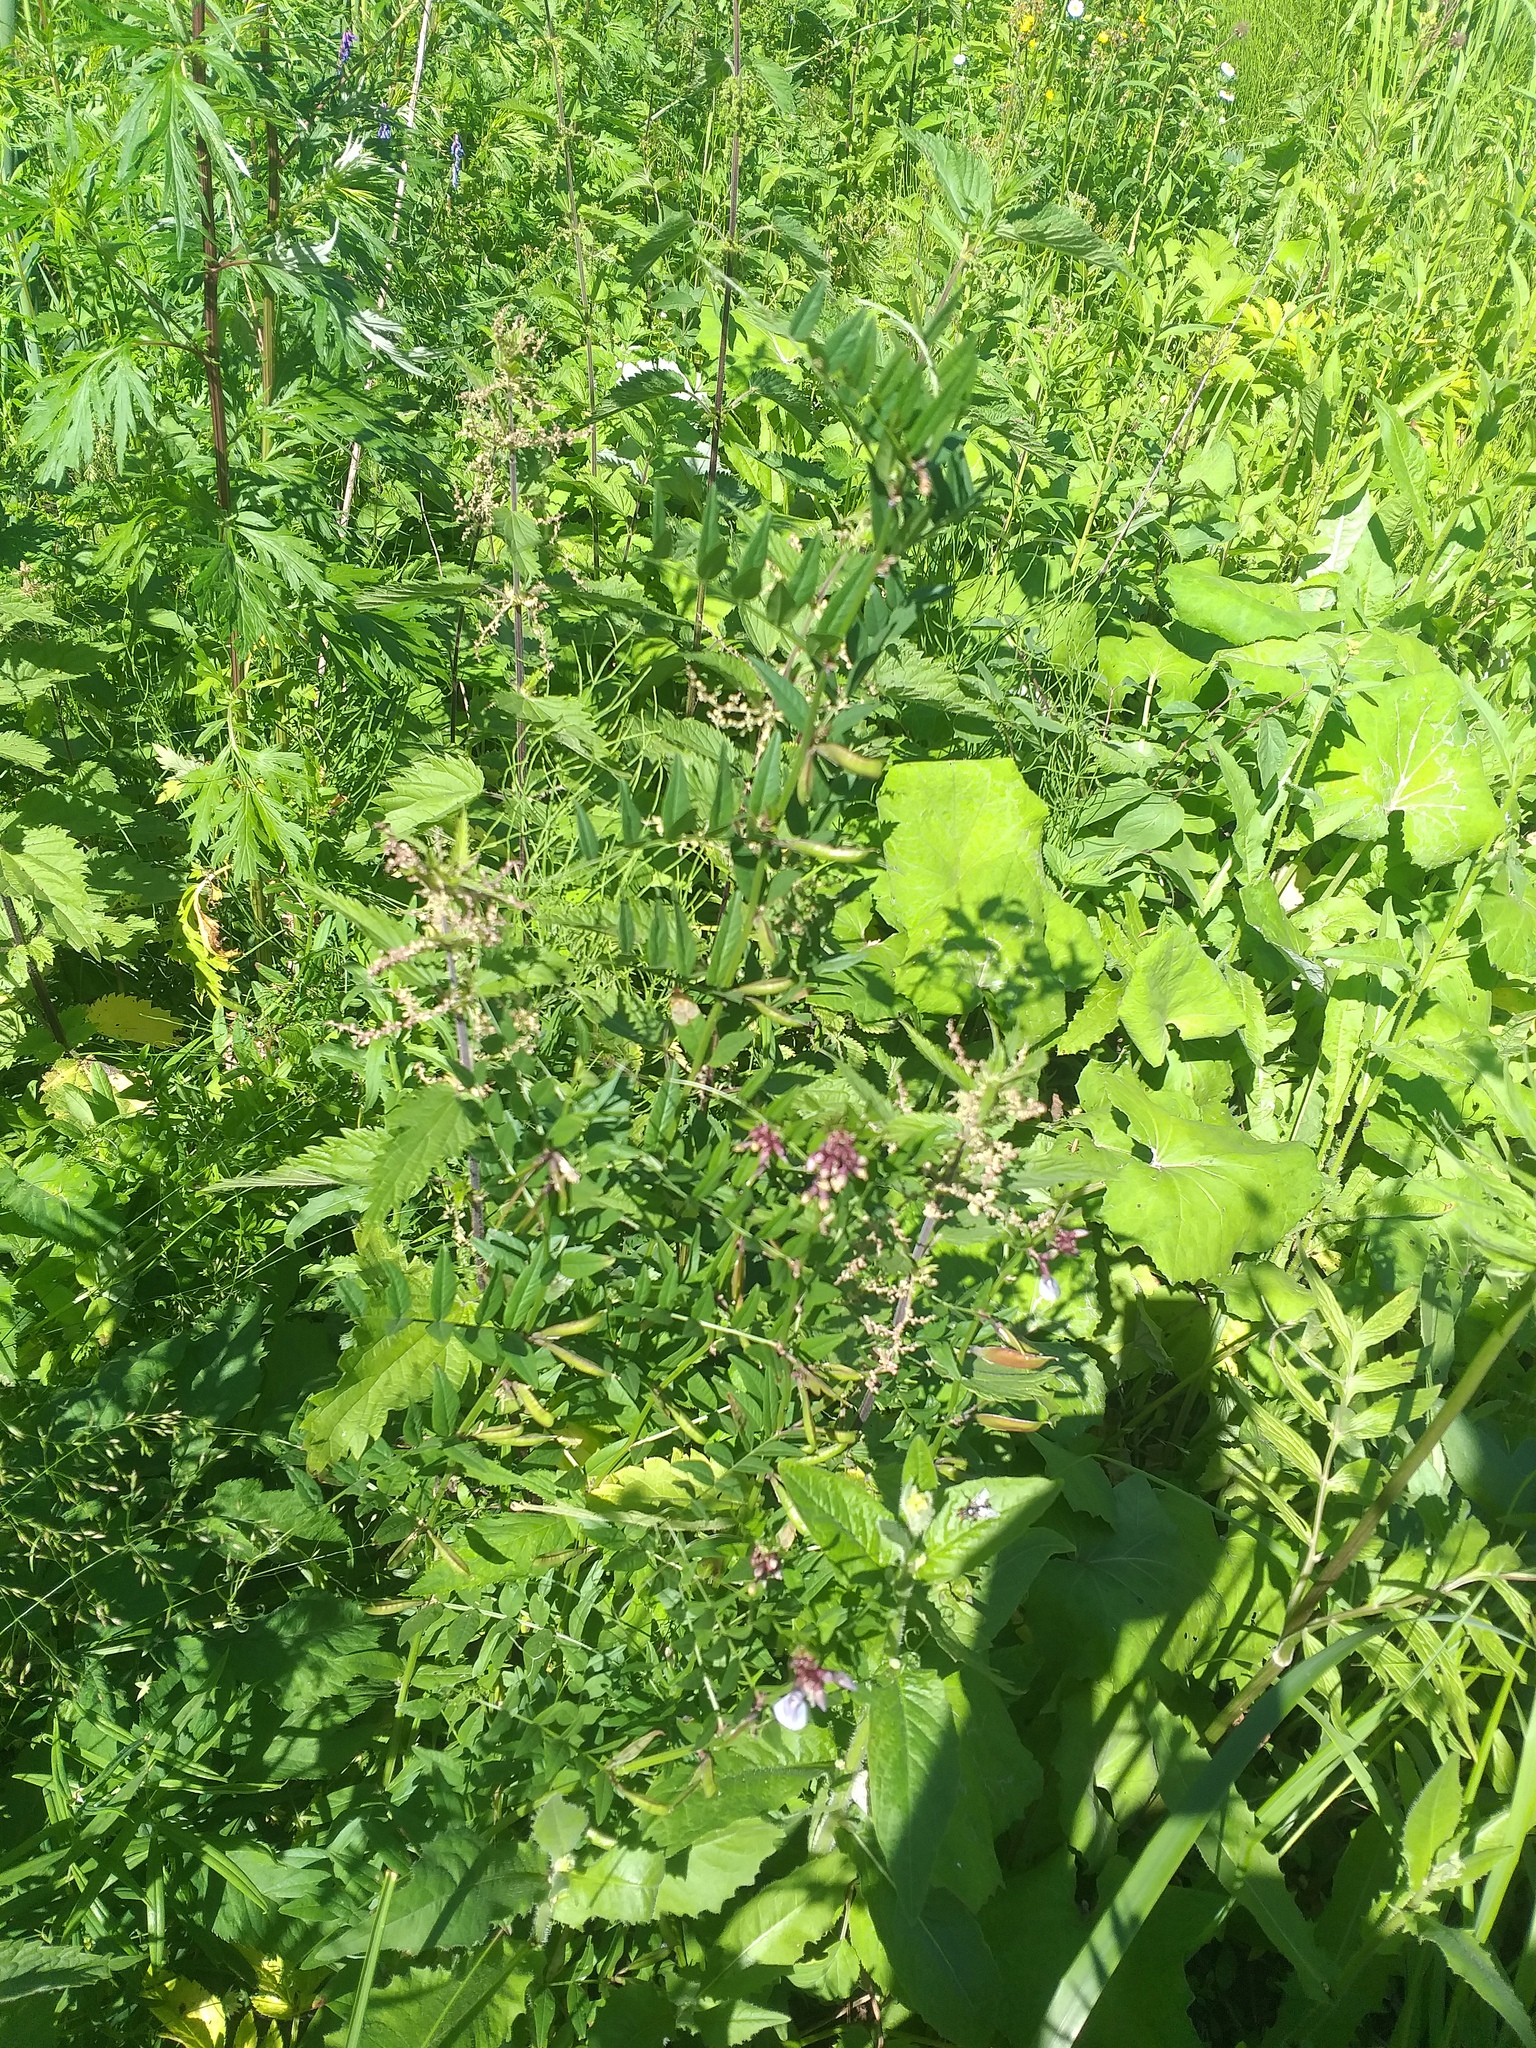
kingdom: Plantae
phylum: Tracheophyta
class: Magnoliopsida
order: Fabales
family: Fabaceae
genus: Vicia
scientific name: Vicia sepium
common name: Bush vetch
